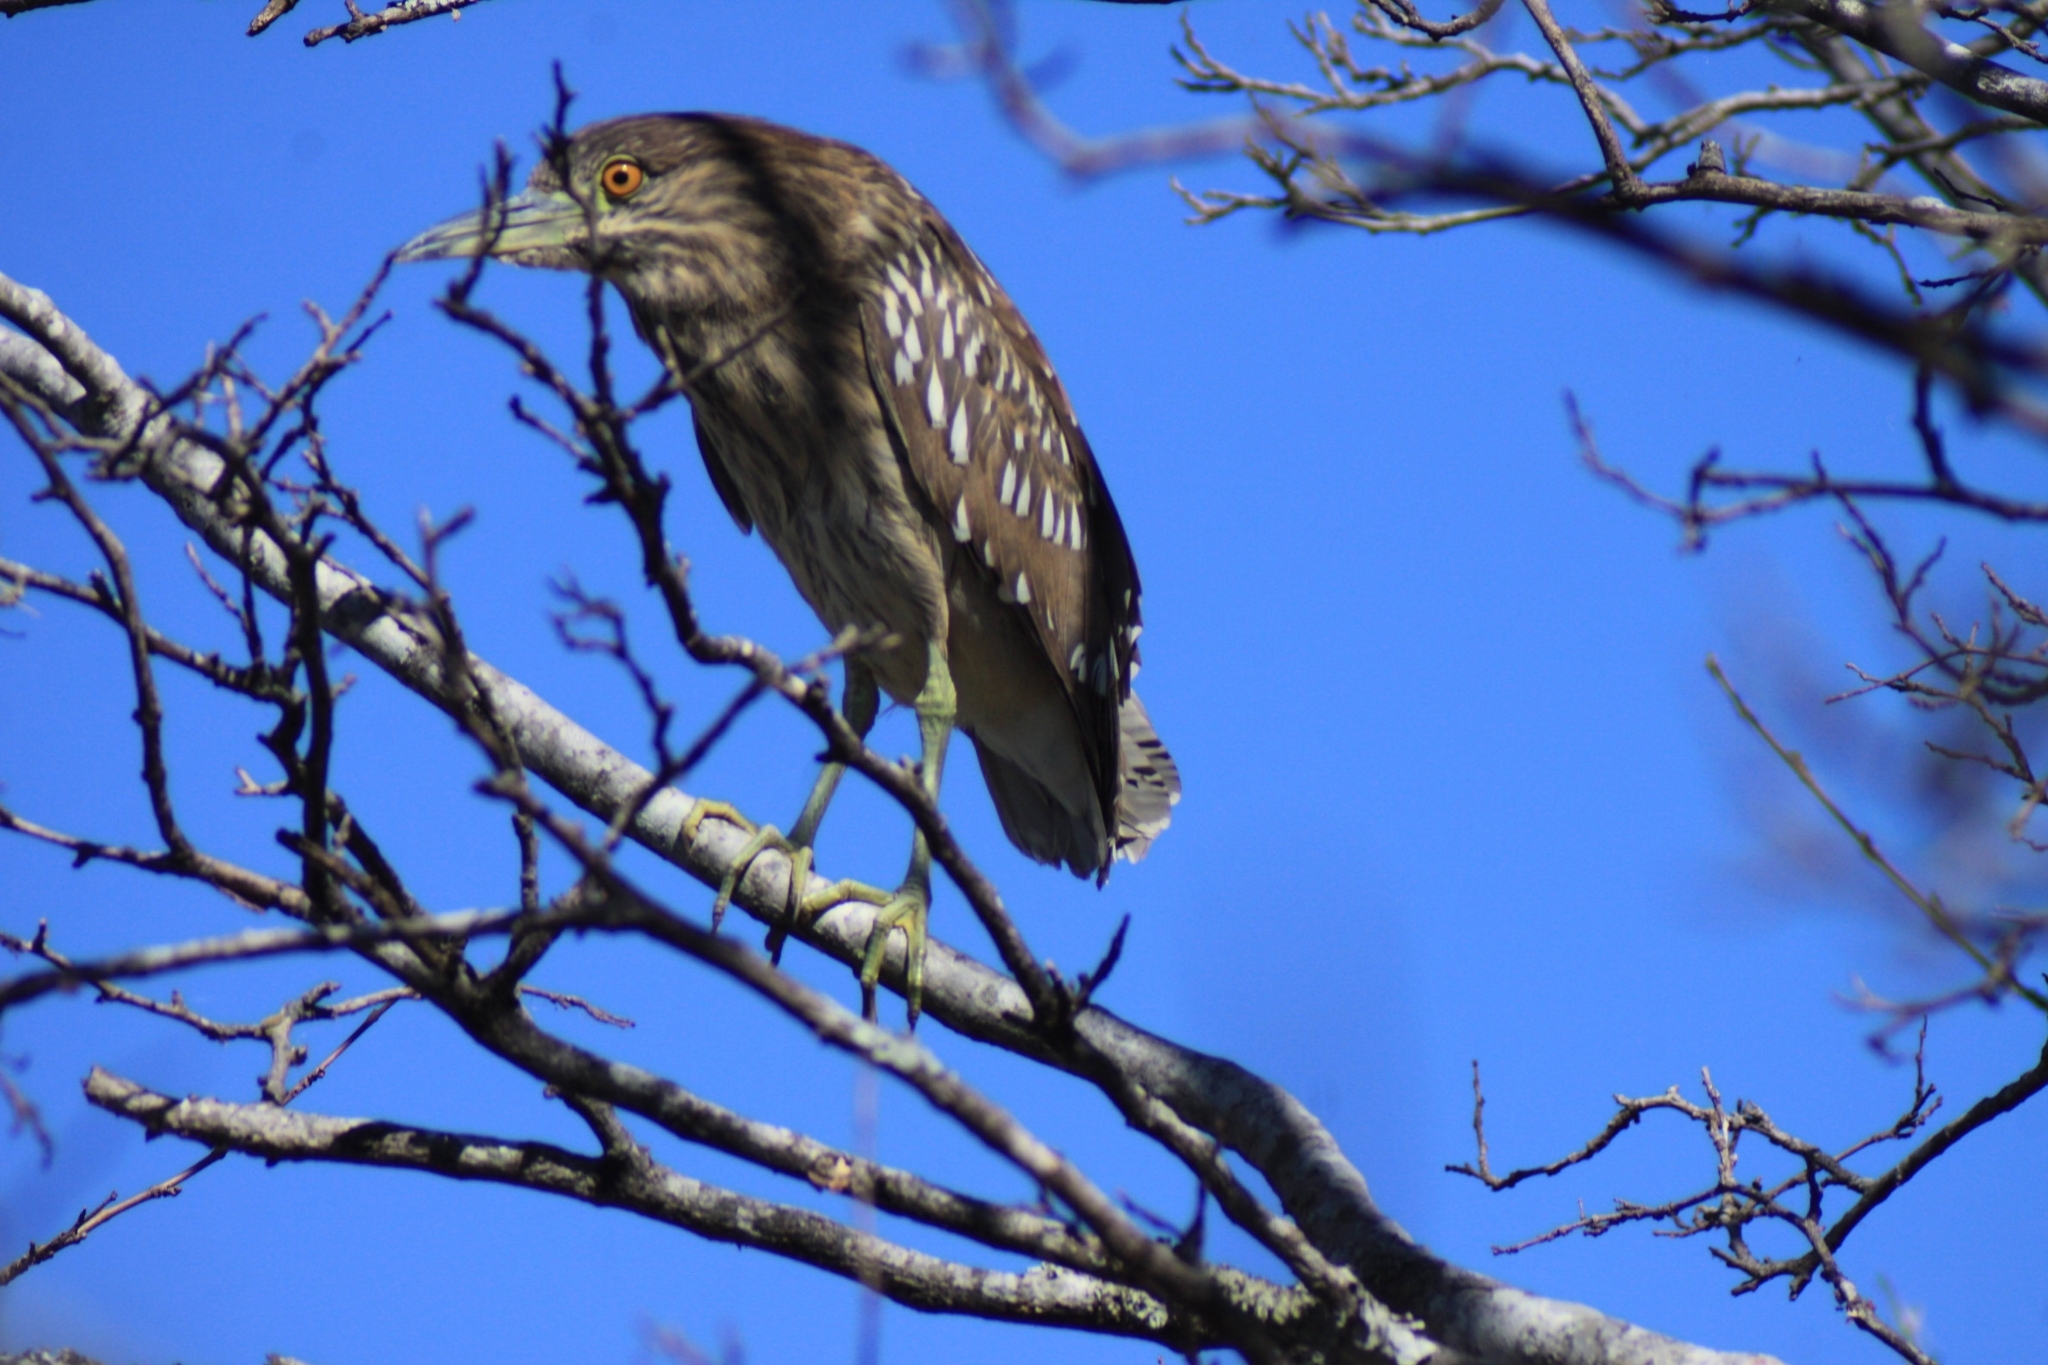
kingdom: Animalia
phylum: Chordata
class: Aves
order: Pelecaniformes
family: Ardeidae
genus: Nycticorax
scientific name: Nycticorax nycticorax
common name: Black-crowned night heron
